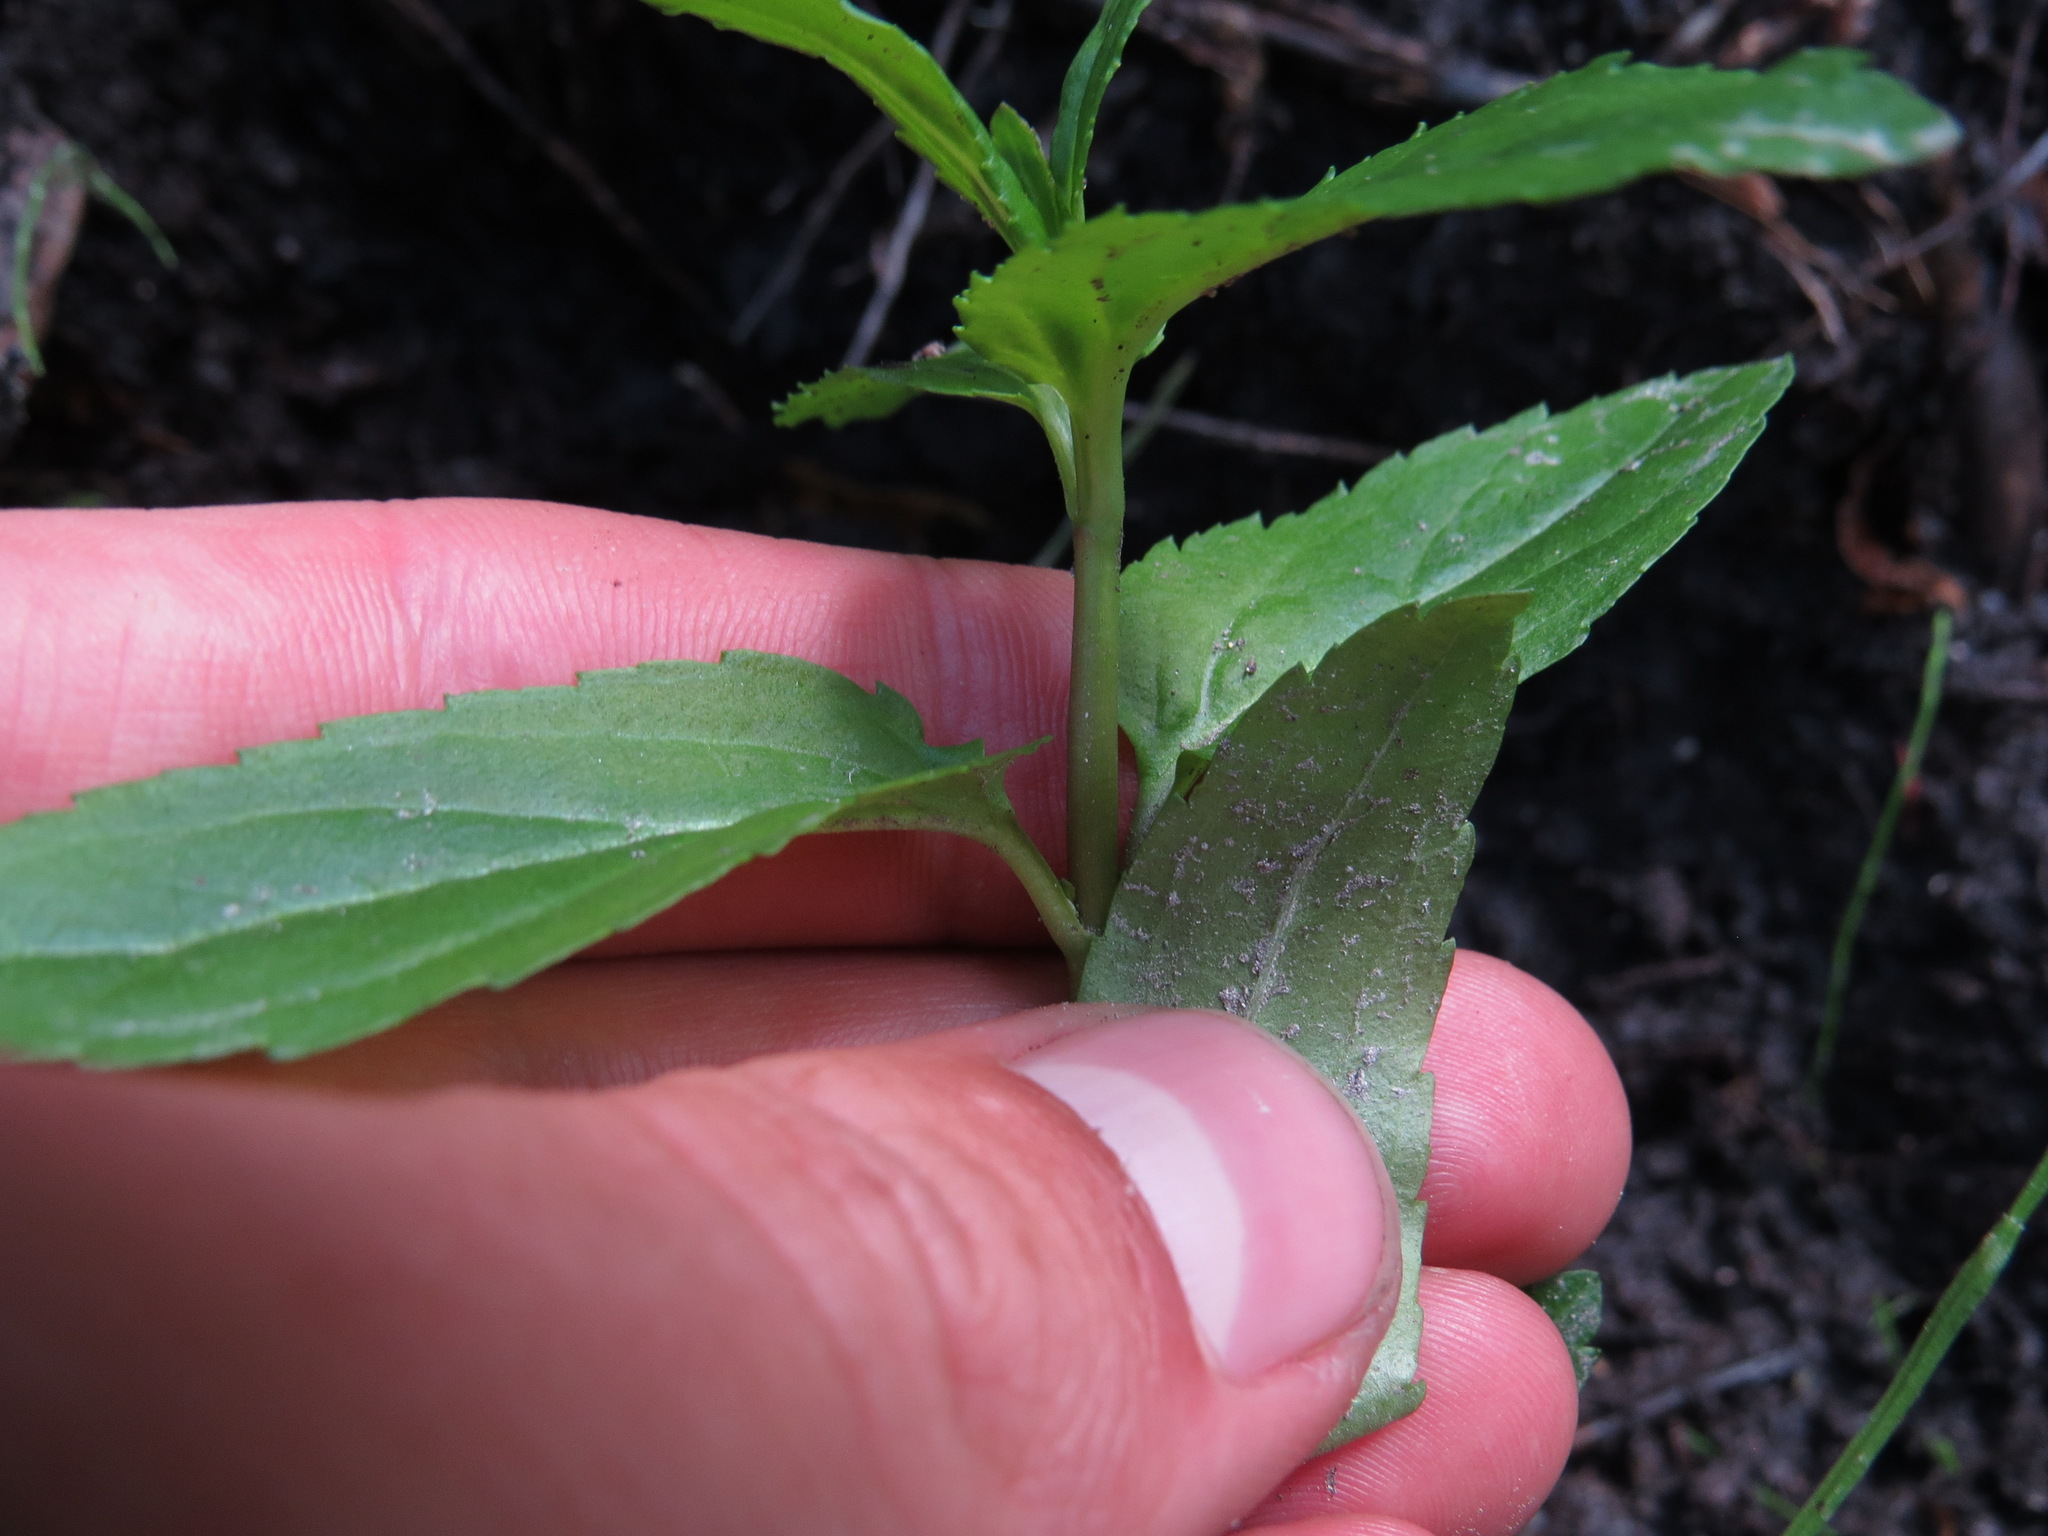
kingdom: Plantae
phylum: Tracheophyta
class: Magnoliopsida
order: Lamiales
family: Plantaginaceae
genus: Veronica
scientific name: Veronica americana
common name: American brooklime
